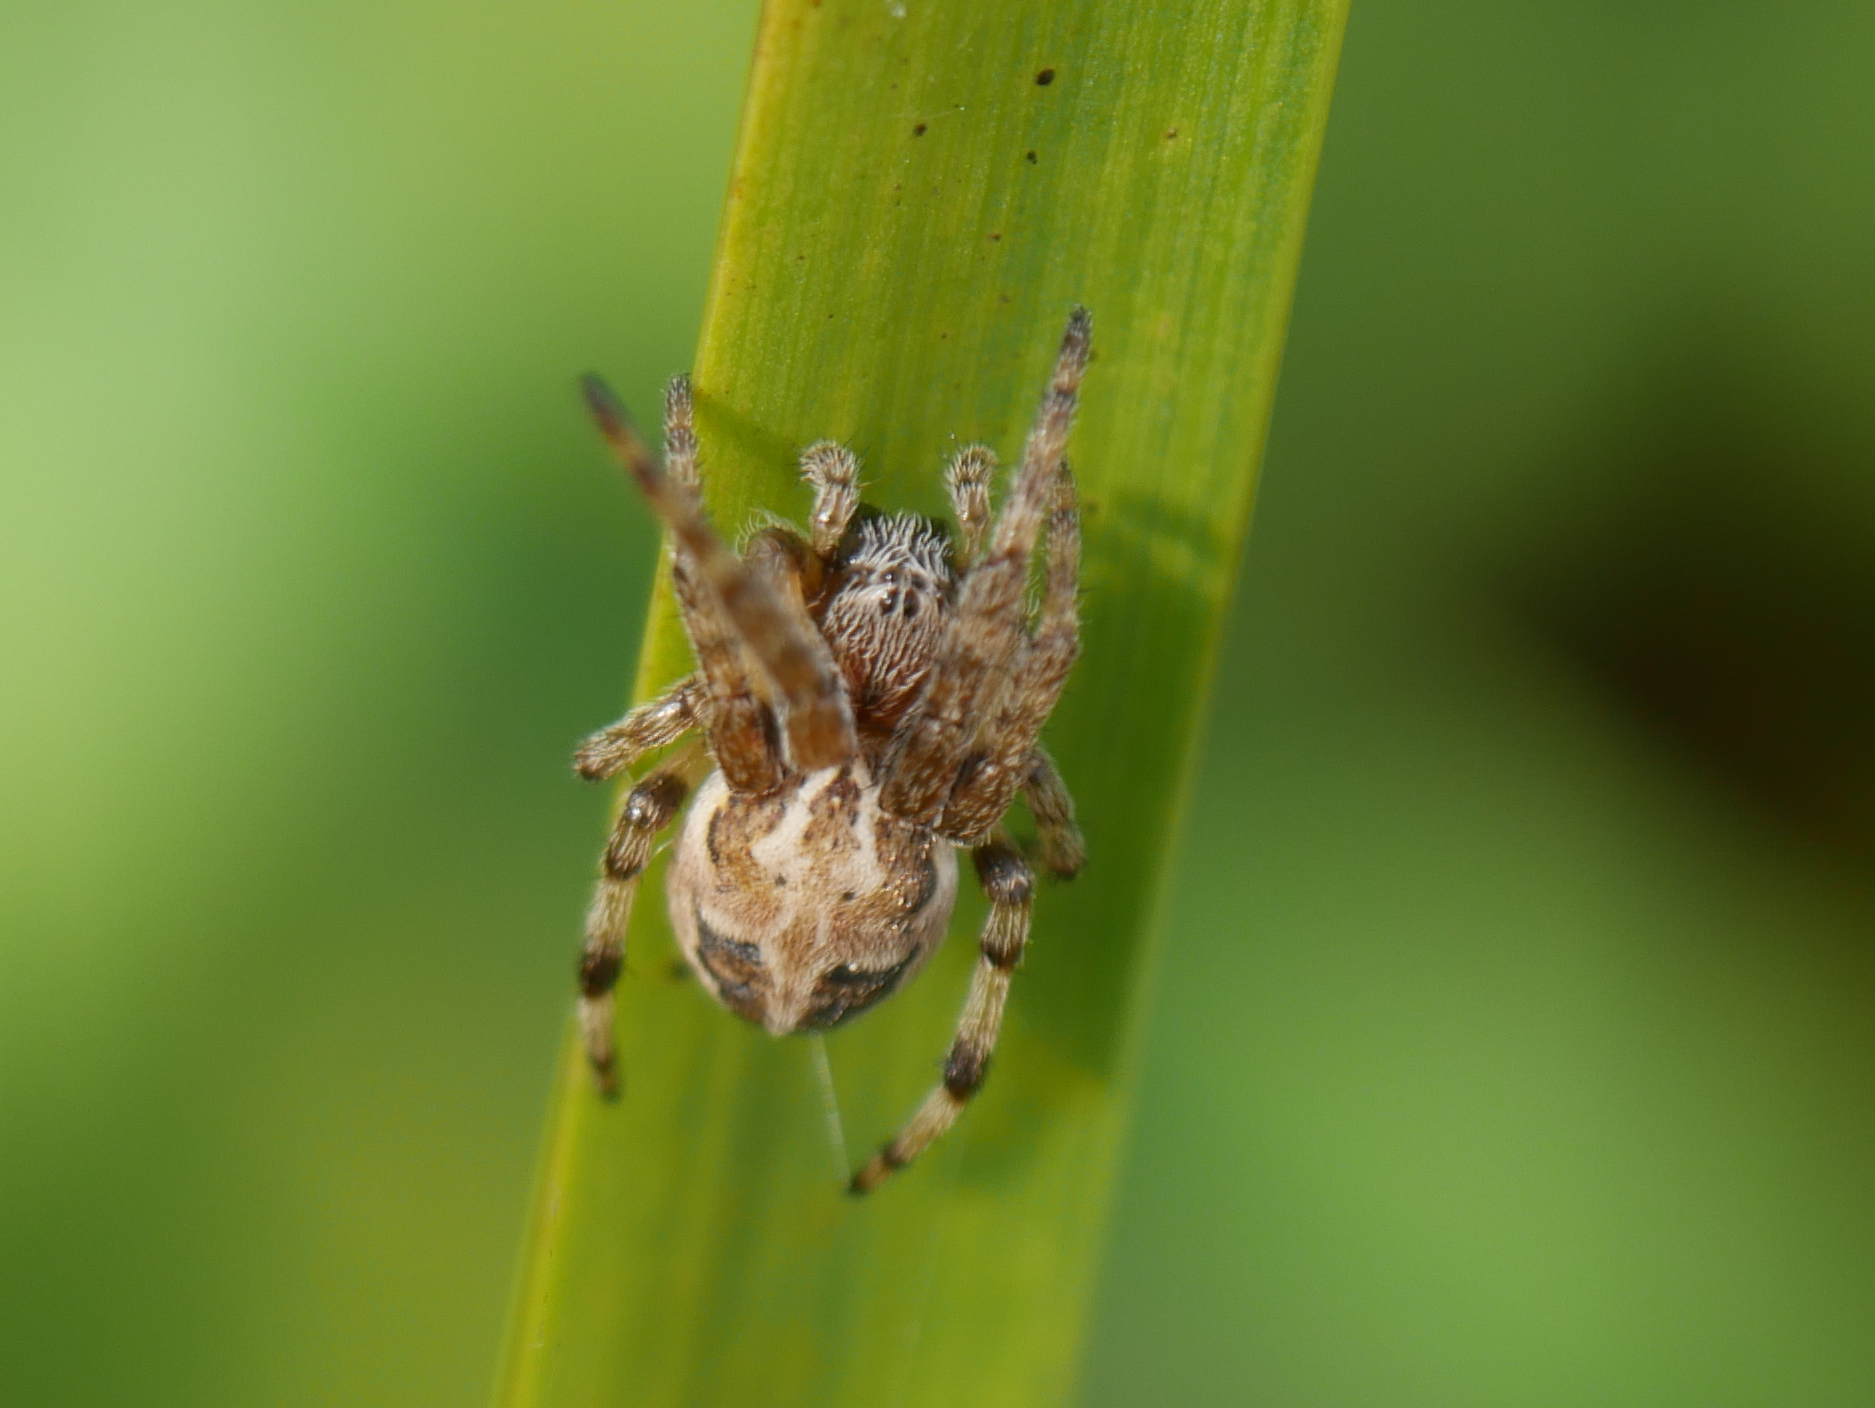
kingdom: Animalia
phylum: Arthropoda
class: Arachnida
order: Araneae
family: Araneidae
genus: Larinioides
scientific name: Larinioides cornutus
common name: Furrow orbweaver
